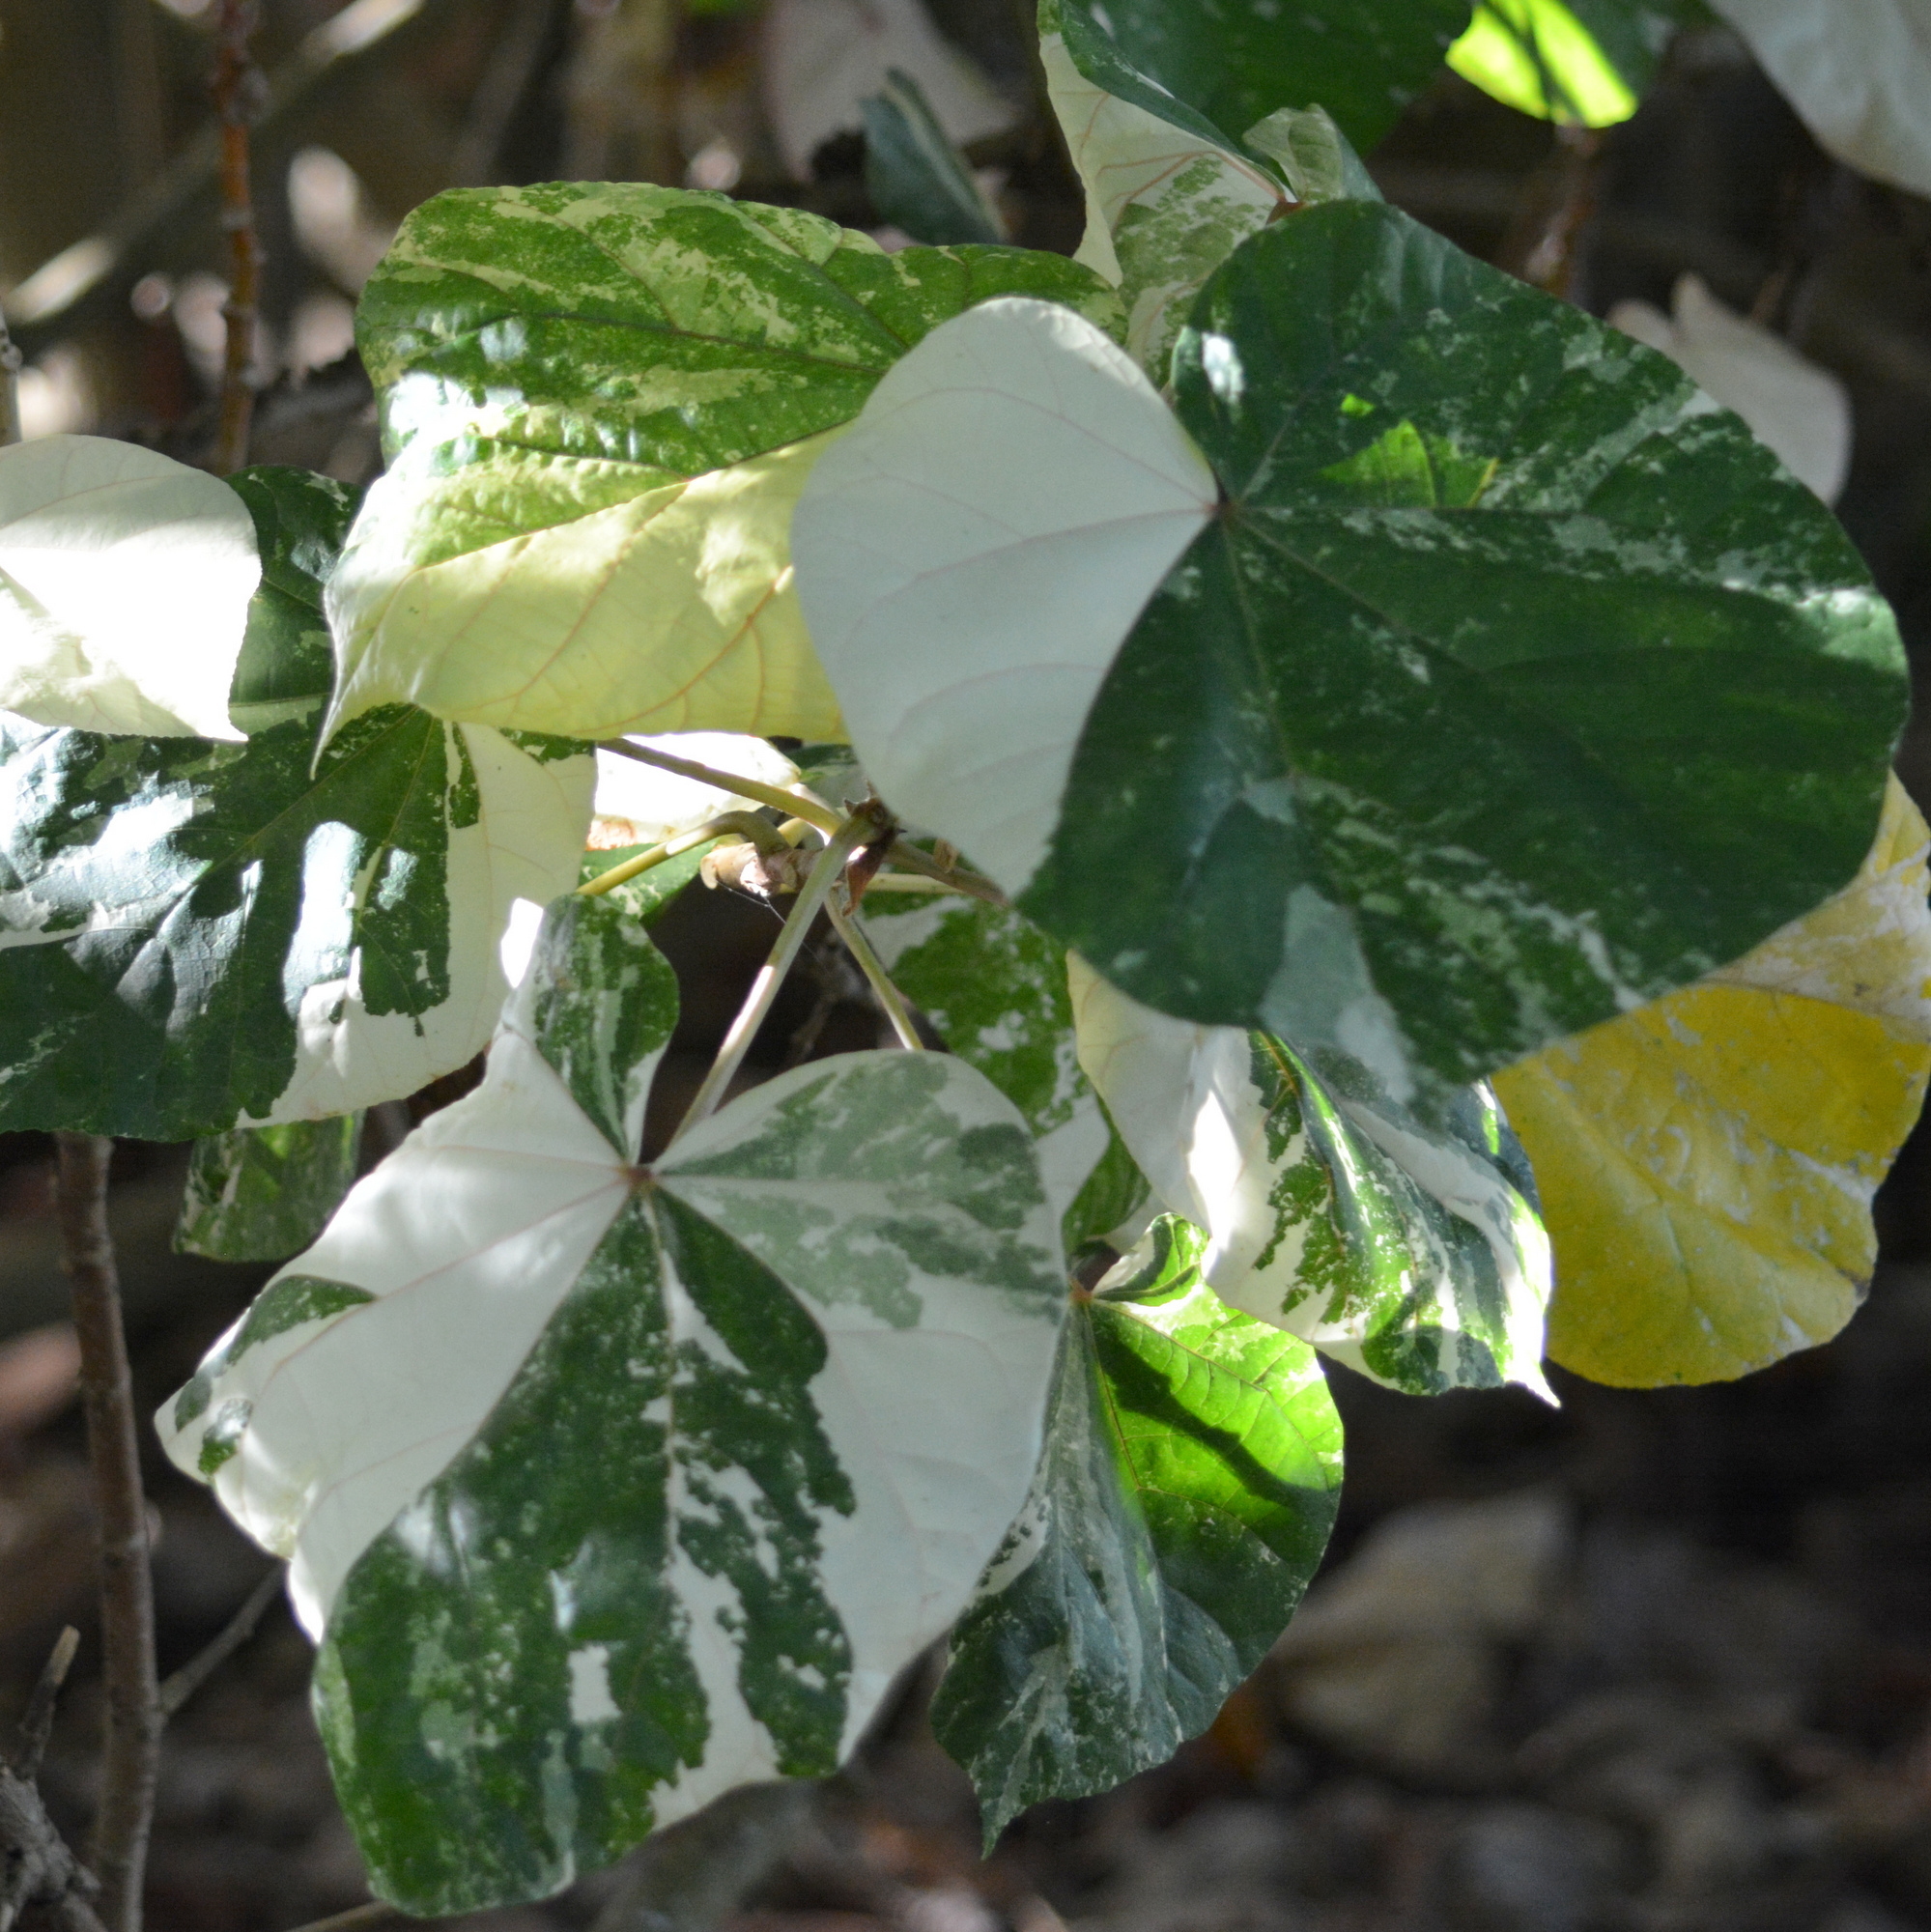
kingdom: Plantae
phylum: Tracheophyta
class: Magnoliopsida
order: Malvales
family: Malvaceae
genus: Talipariti
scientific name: Talipariti tiliaceum
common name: Sea hibiscus
